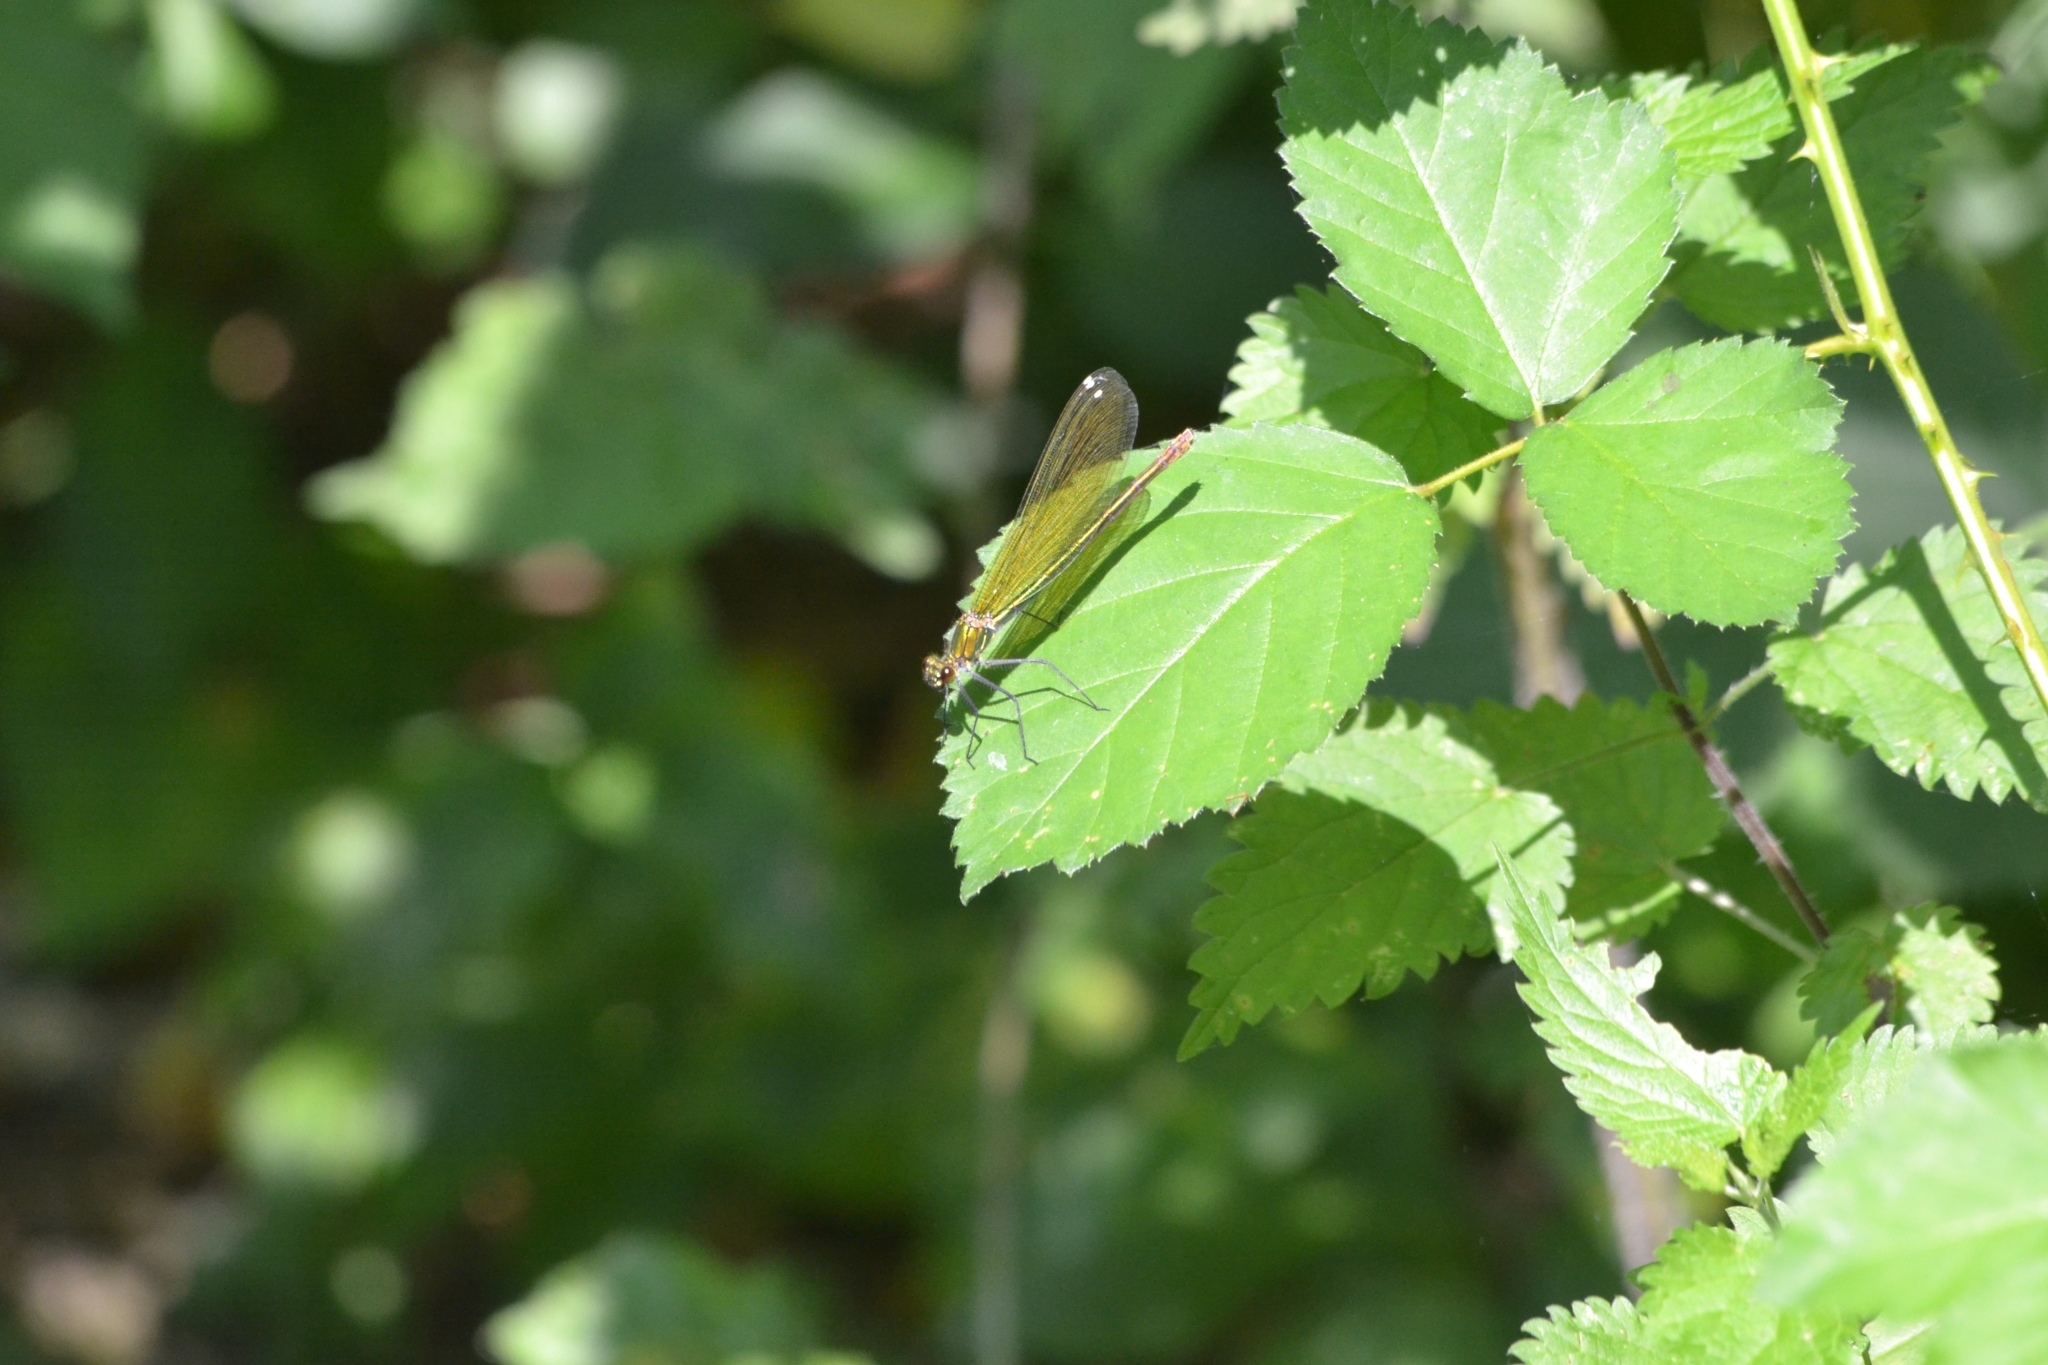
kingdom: Animalia
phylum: Arthropoda
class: Insecta
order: Odonata
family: Calopterygidae
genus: Calopteryx
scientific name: Calopteryx splendens
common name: Banded demoiselle
